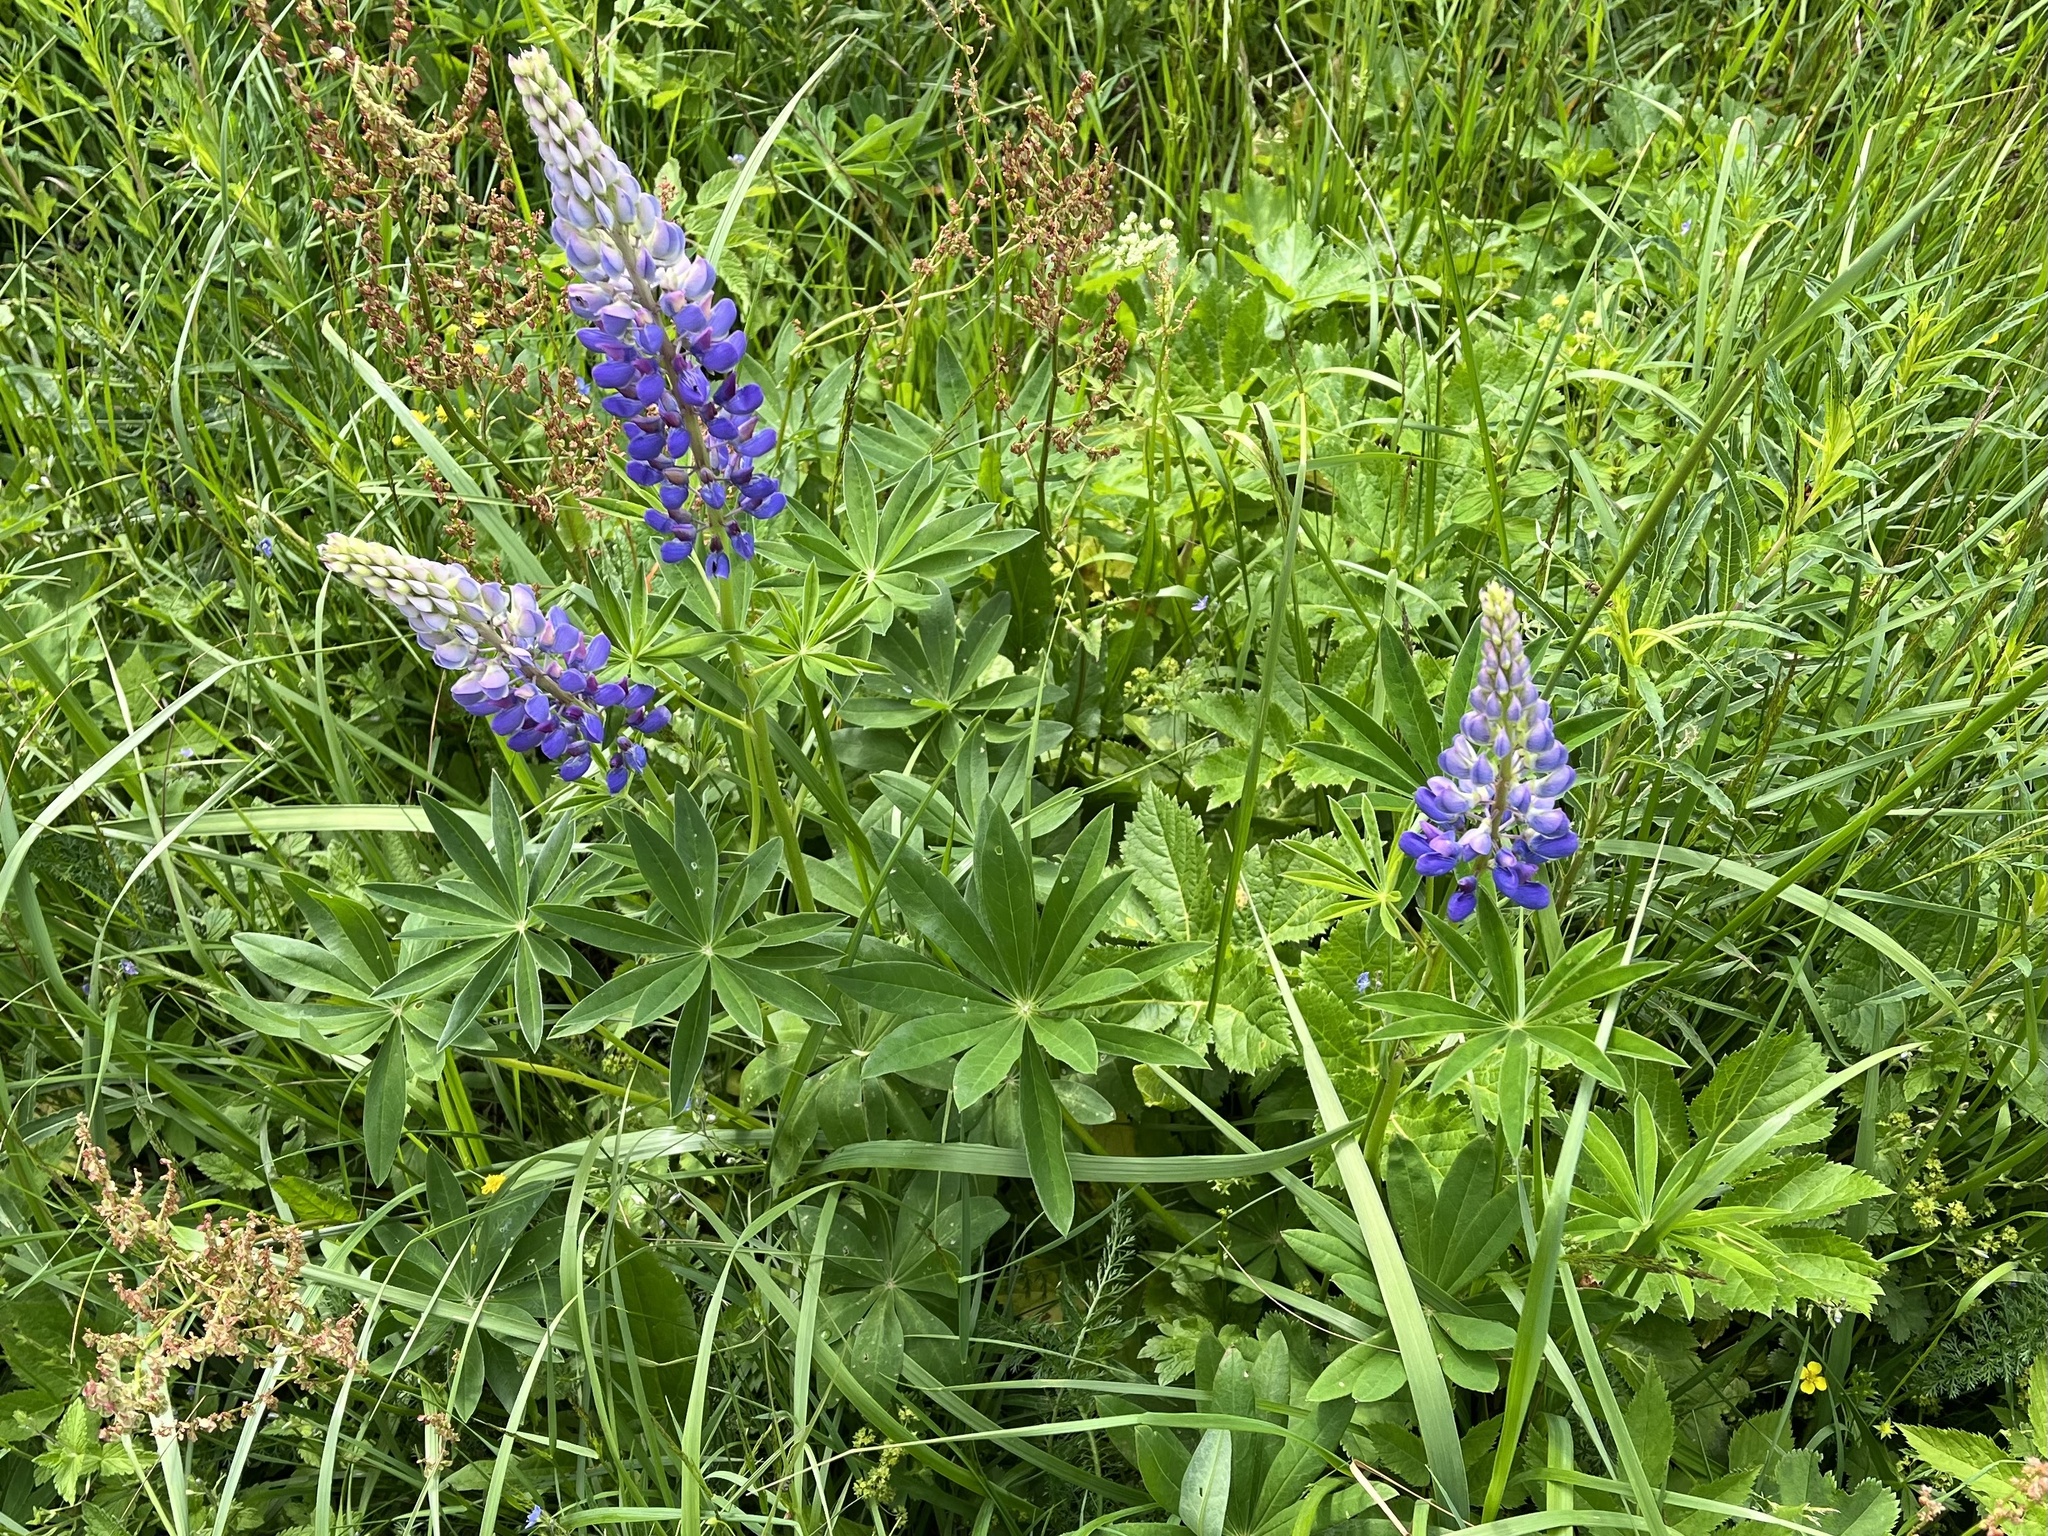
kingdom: Plantae
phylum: Tracheophyta
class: Magnoliopsida
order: Fabales
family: Fabaceae
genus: Lupinus
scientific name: Lupinus polyphyllus
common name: Garden lupin
